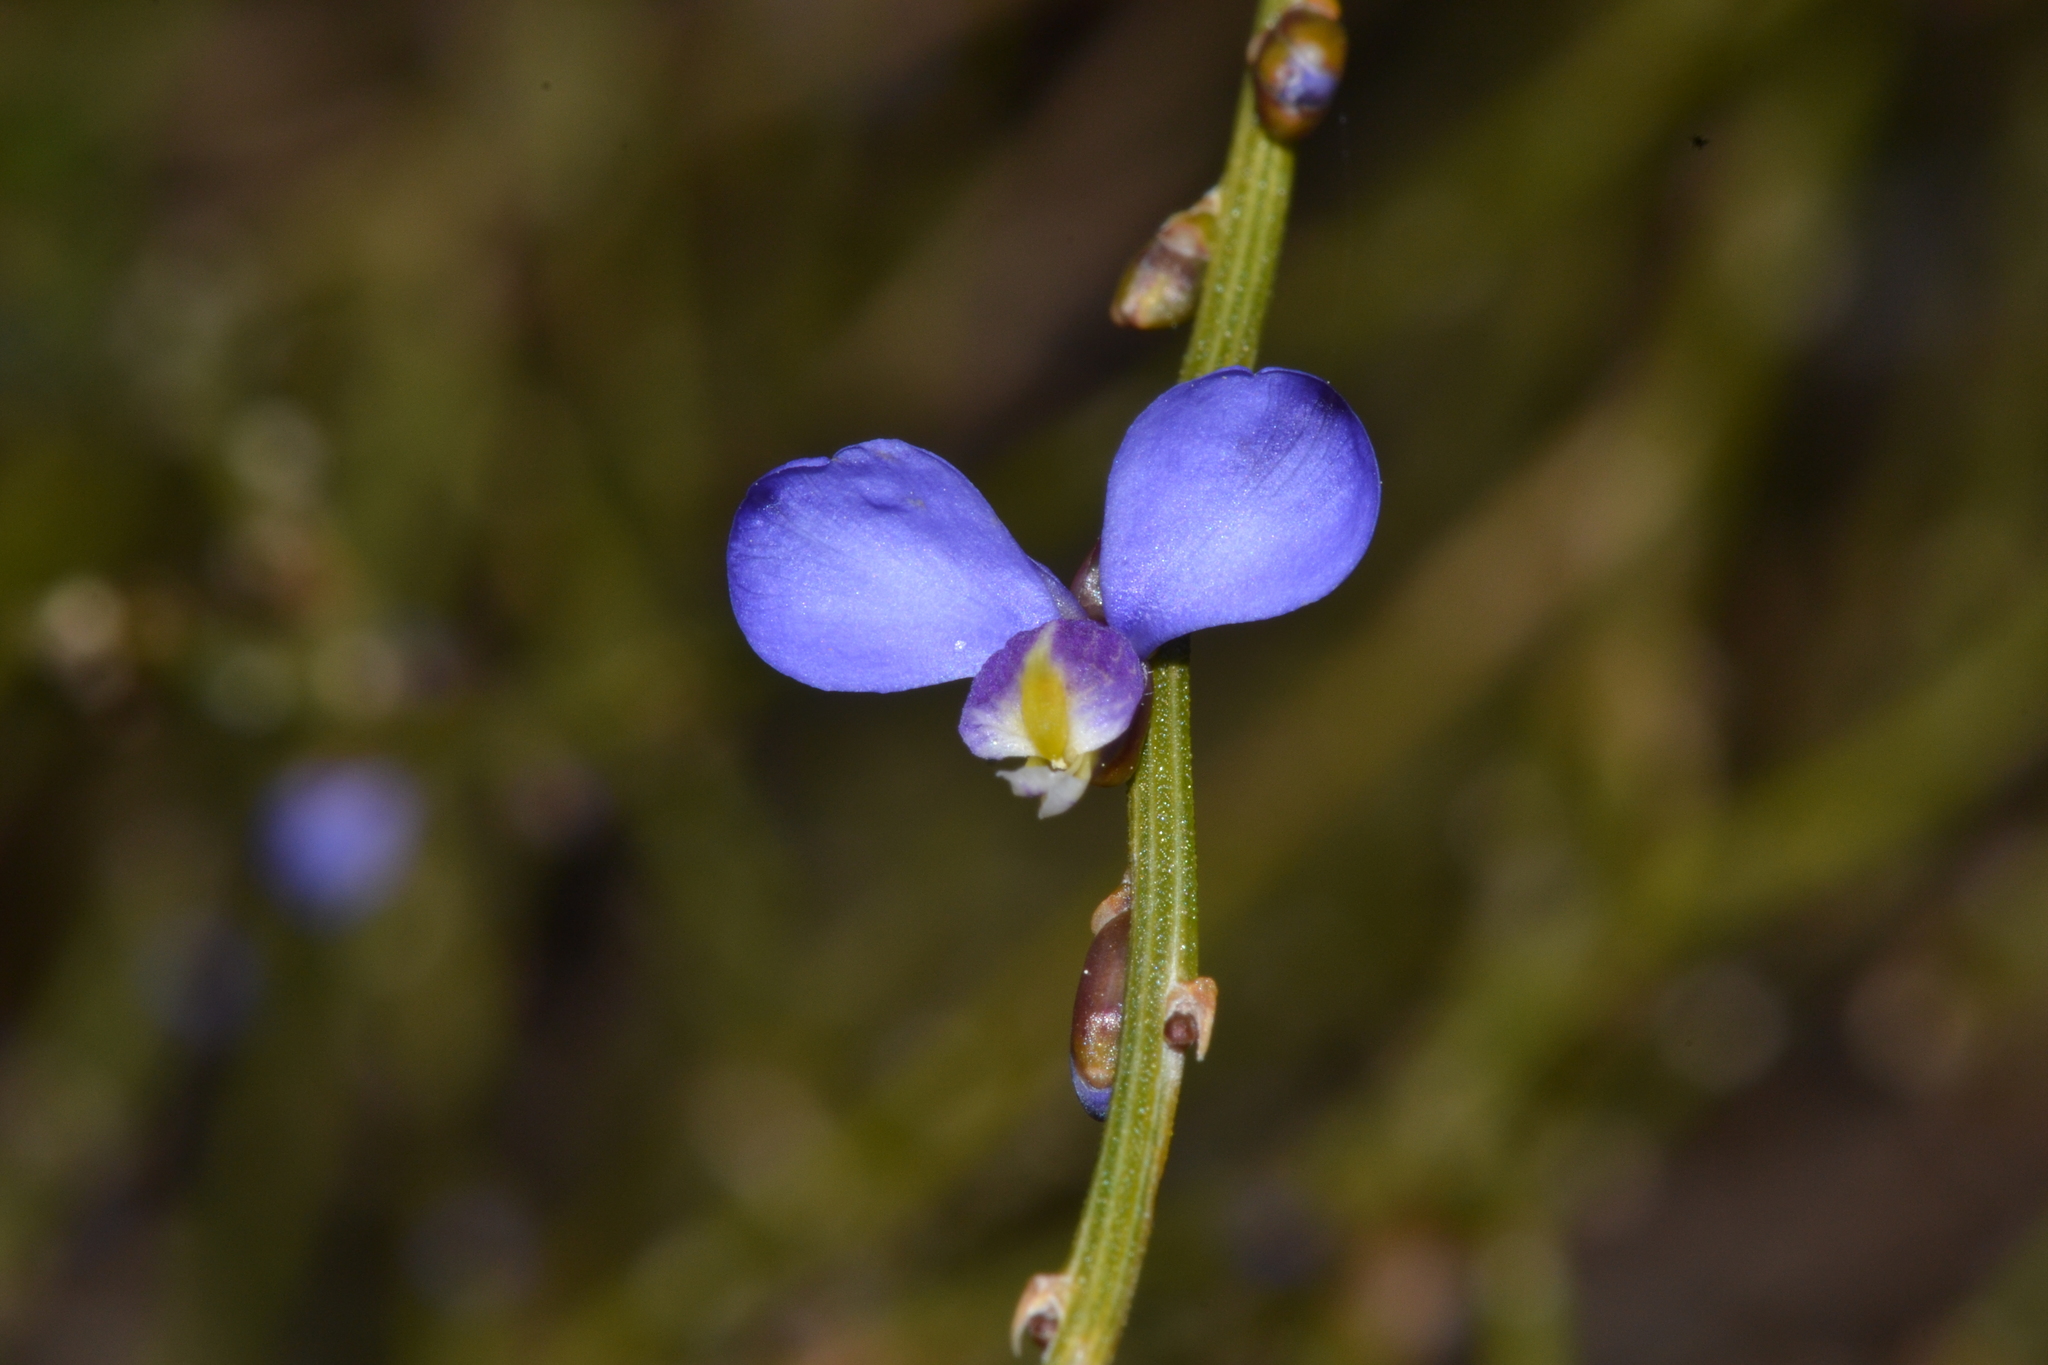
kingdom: Plantae
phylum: Tracheophyta
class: Magnoliopsida
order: Fabales
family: Polygalaceae
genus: Comesperma
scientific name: Comesperma scoparium
